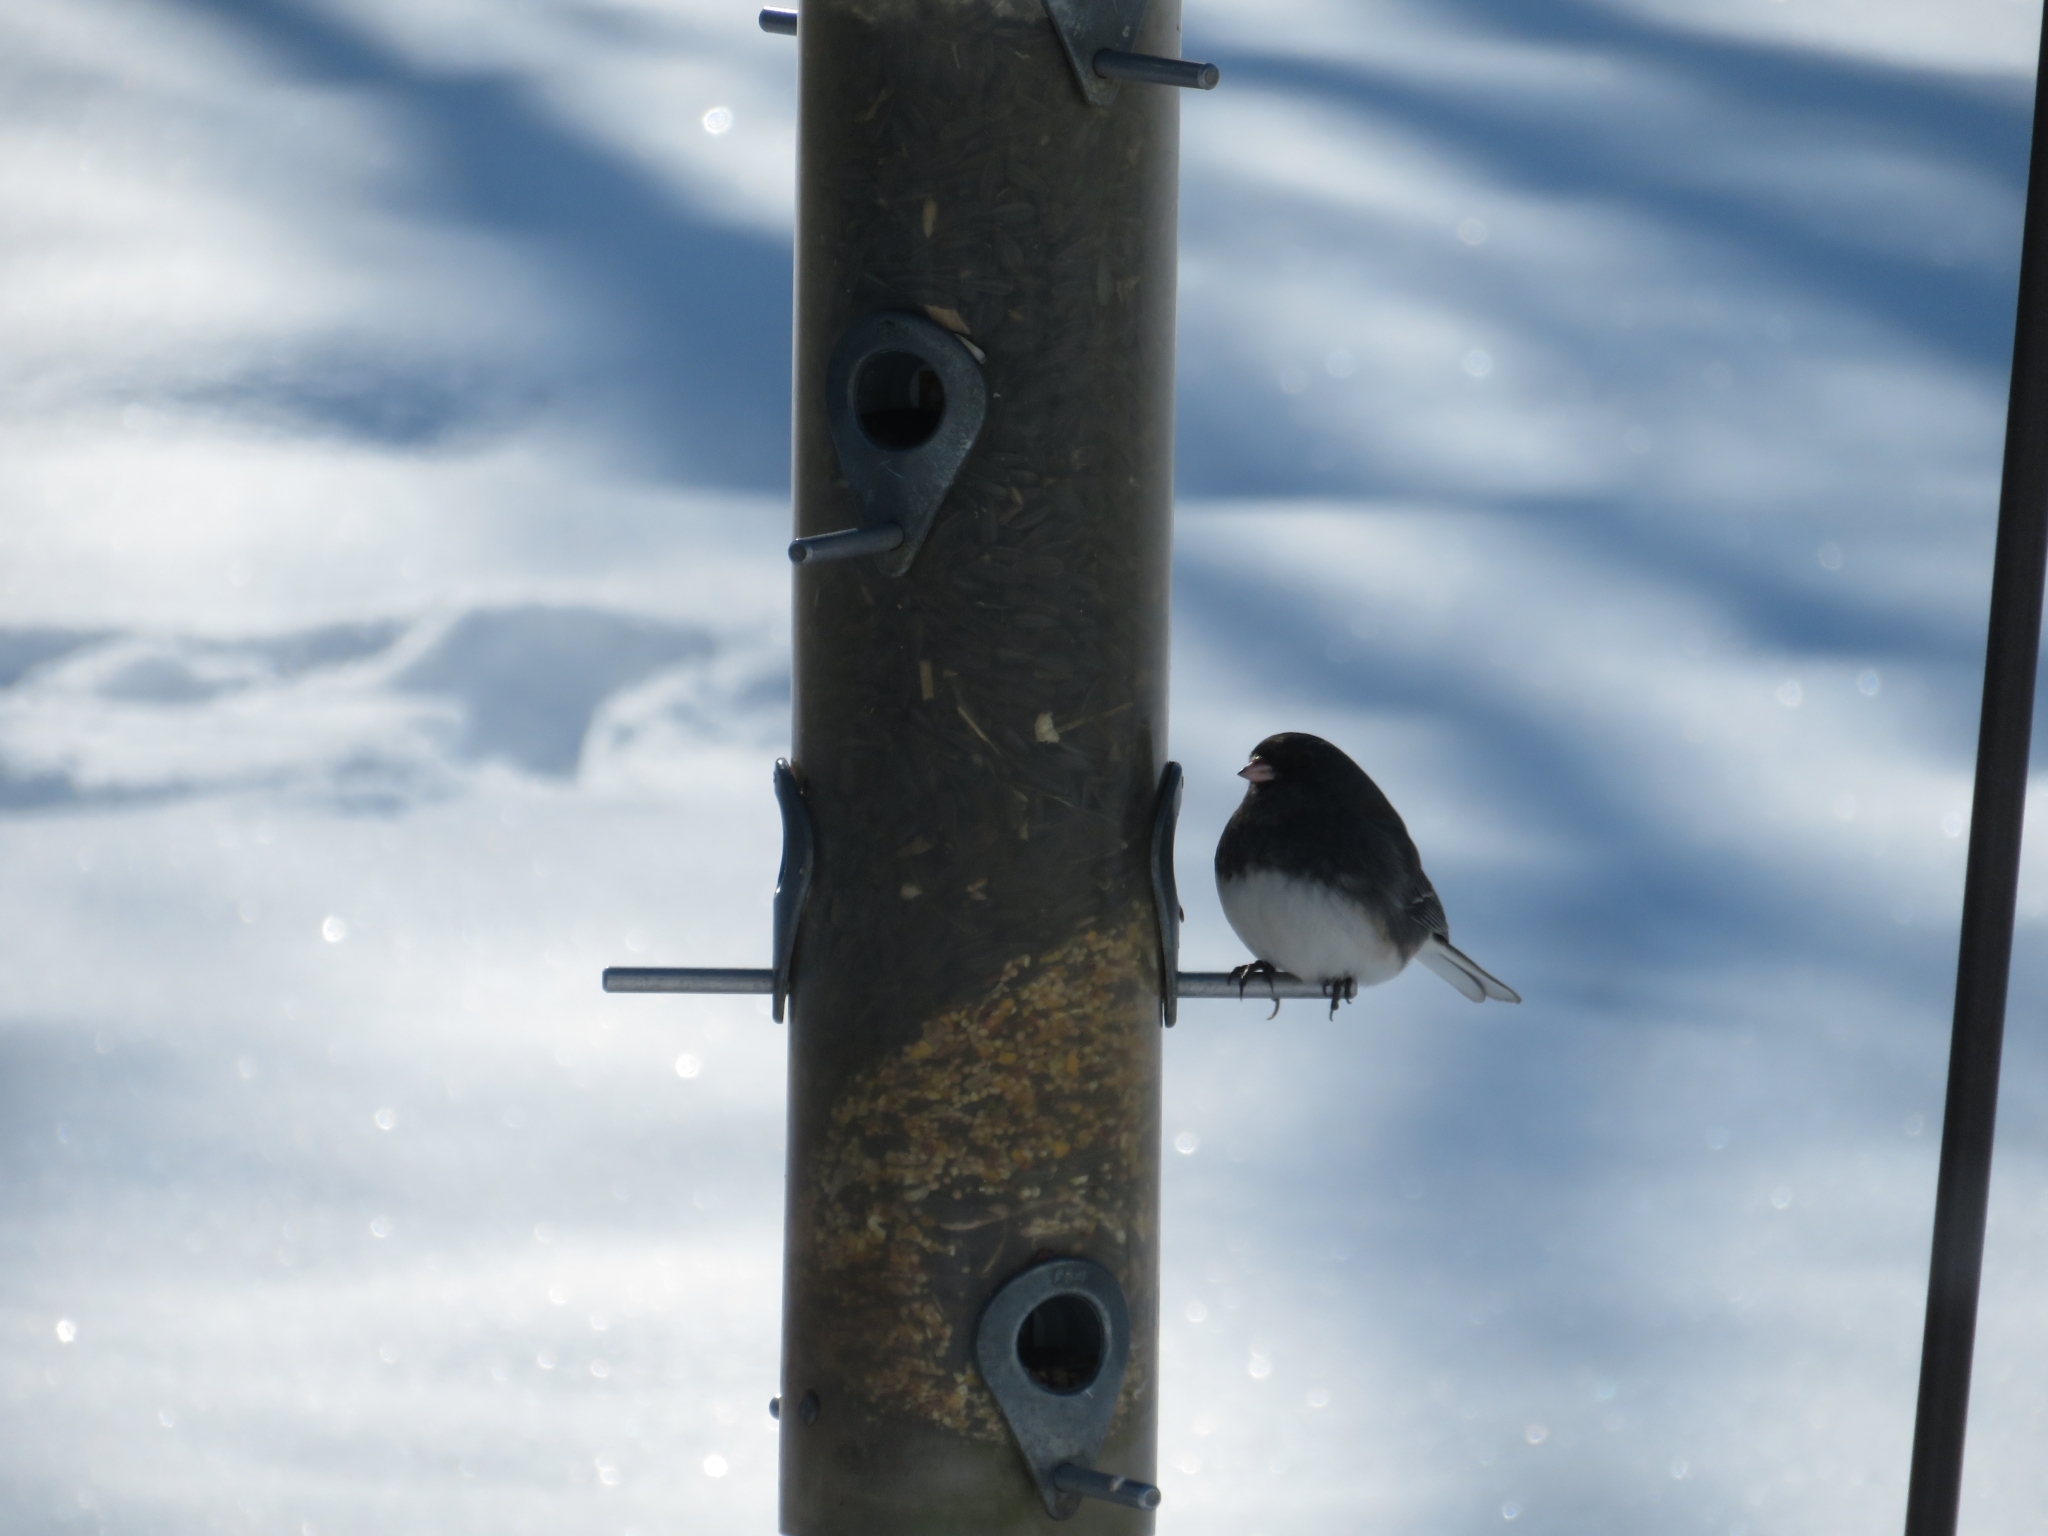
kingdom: Animalia
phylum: Chordata
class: Aves
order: Passeriformes
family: Passerellidae
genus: Junco
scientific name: Junco hyemalis
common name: Dark-eyed junco
